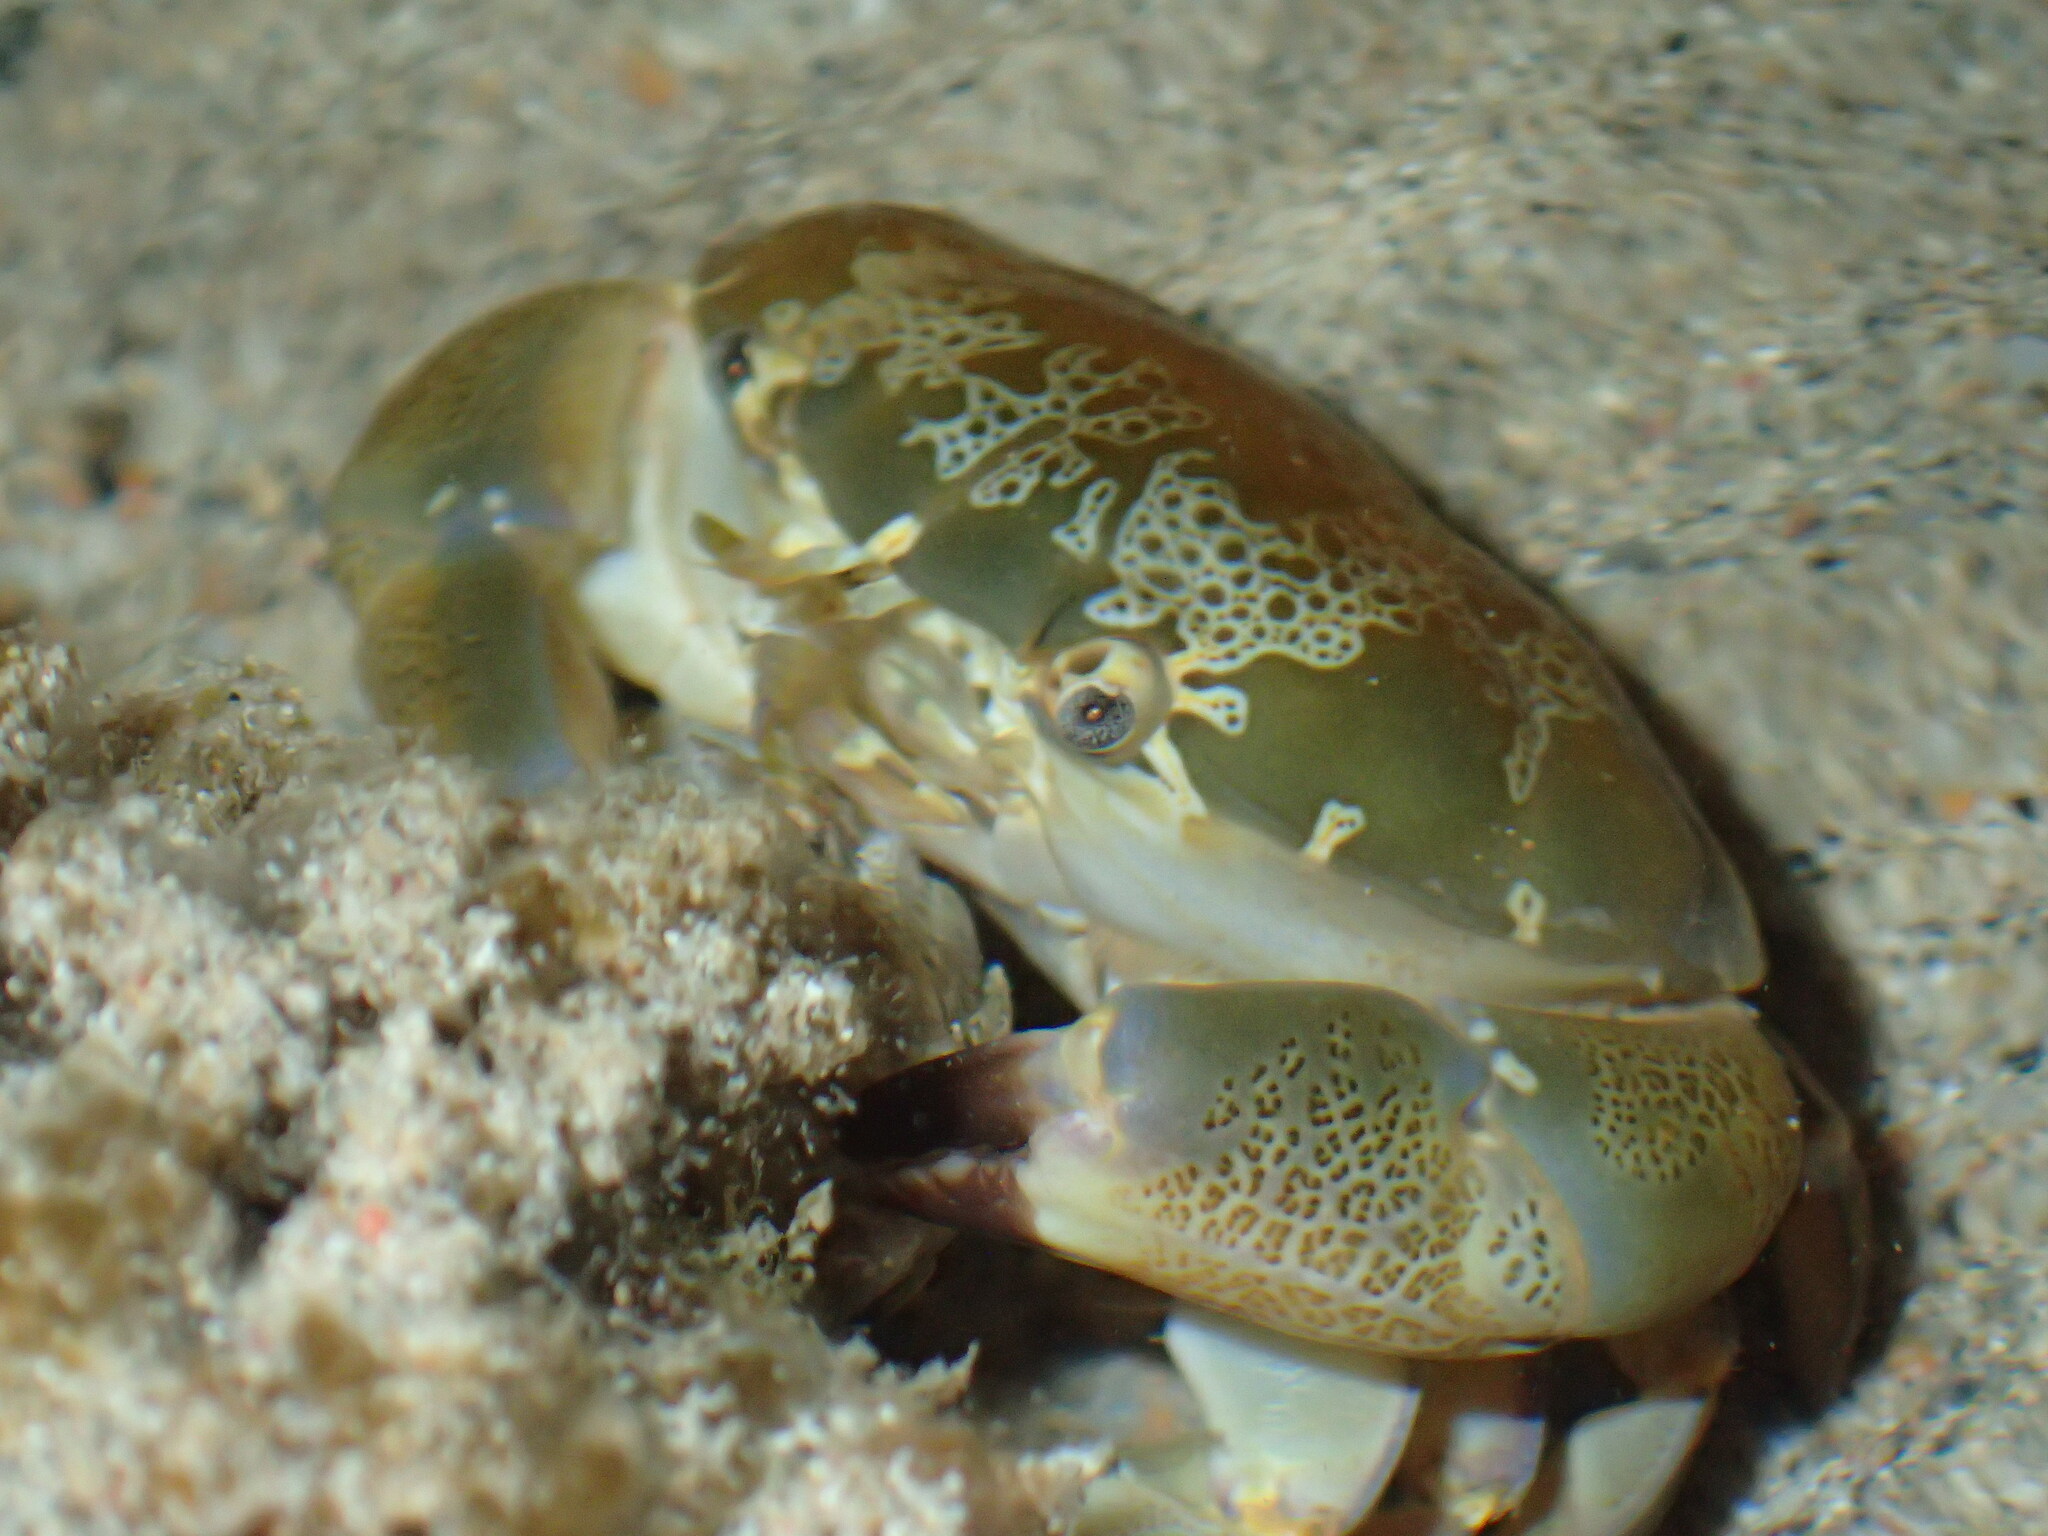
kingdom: Animalia
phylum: Arthropoda
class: Malacostraca
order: Decapoda
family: Xanthidae
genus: Atergatis
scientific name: Atergatis floridus
